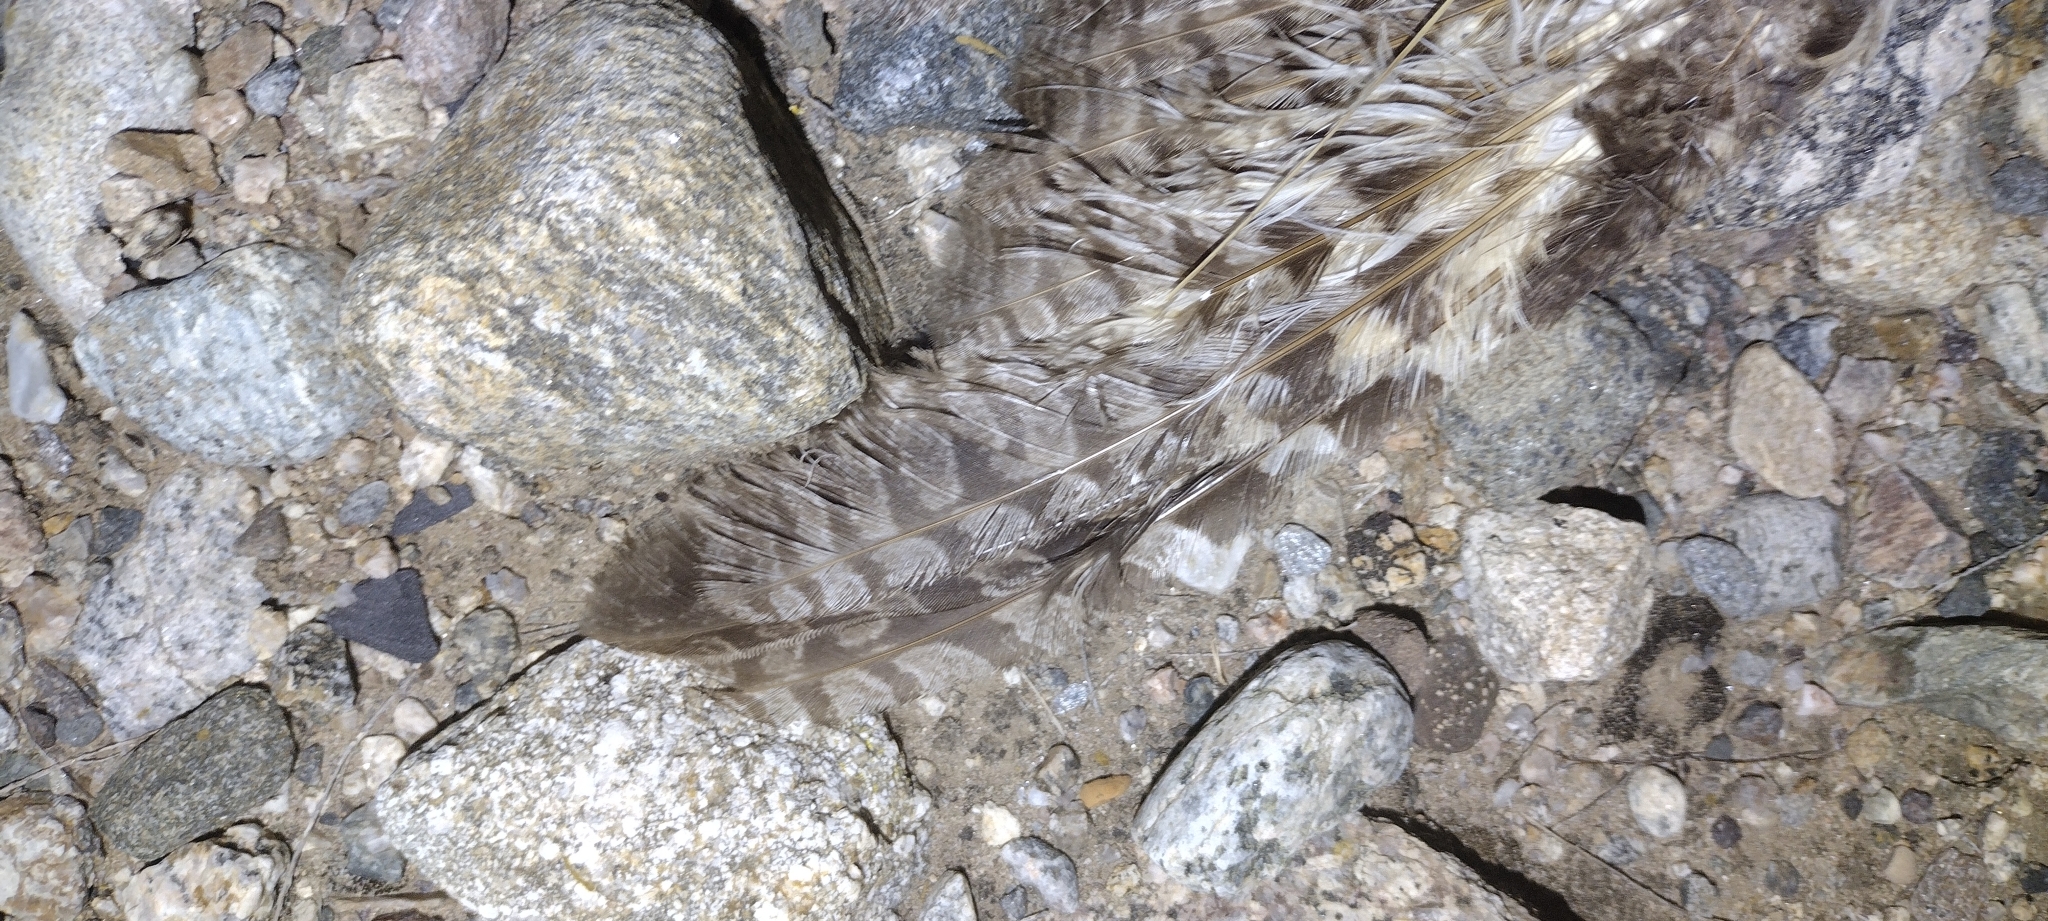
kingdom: Animalia
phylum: Chordata
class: Aves
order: Strigiformes
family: Strigidae
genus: Asio
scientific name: Asio otus
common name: Long-eared owl
